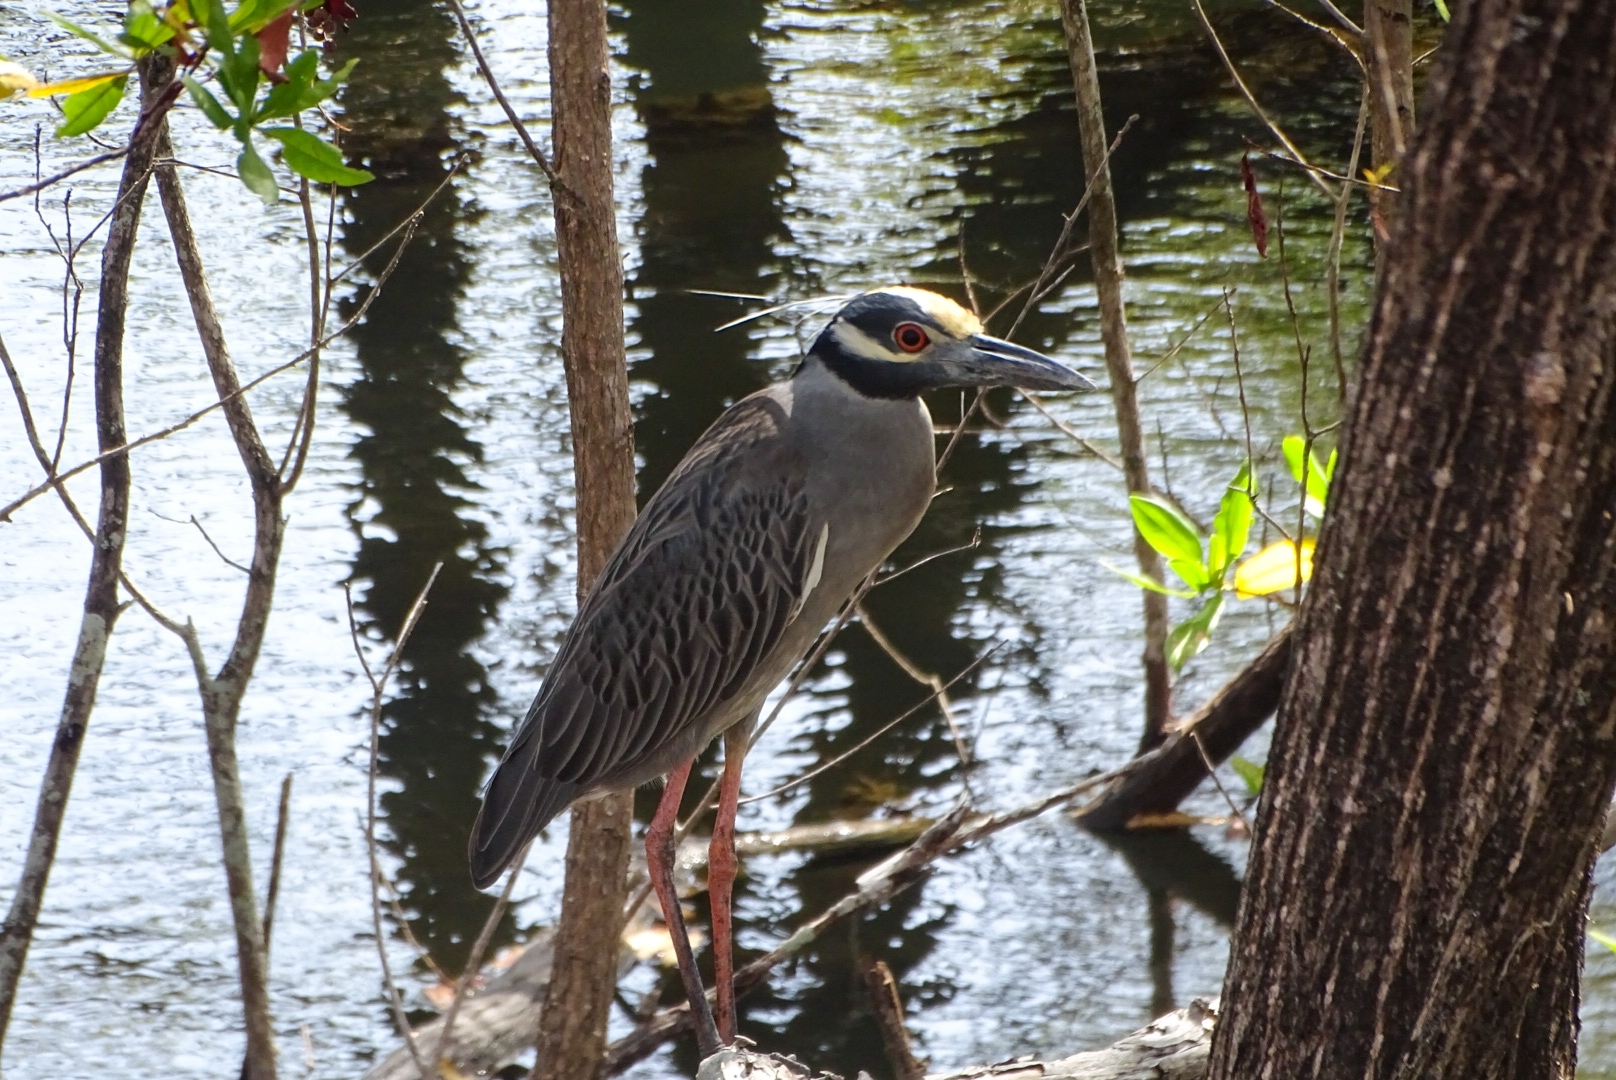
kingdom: Animalia
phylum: Chordata
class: Aves
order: Pelecaniformes
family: Ardeidae
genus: Nyctanassa
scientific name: Nyctanassa violacea
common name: Yellow-crowned night heron
